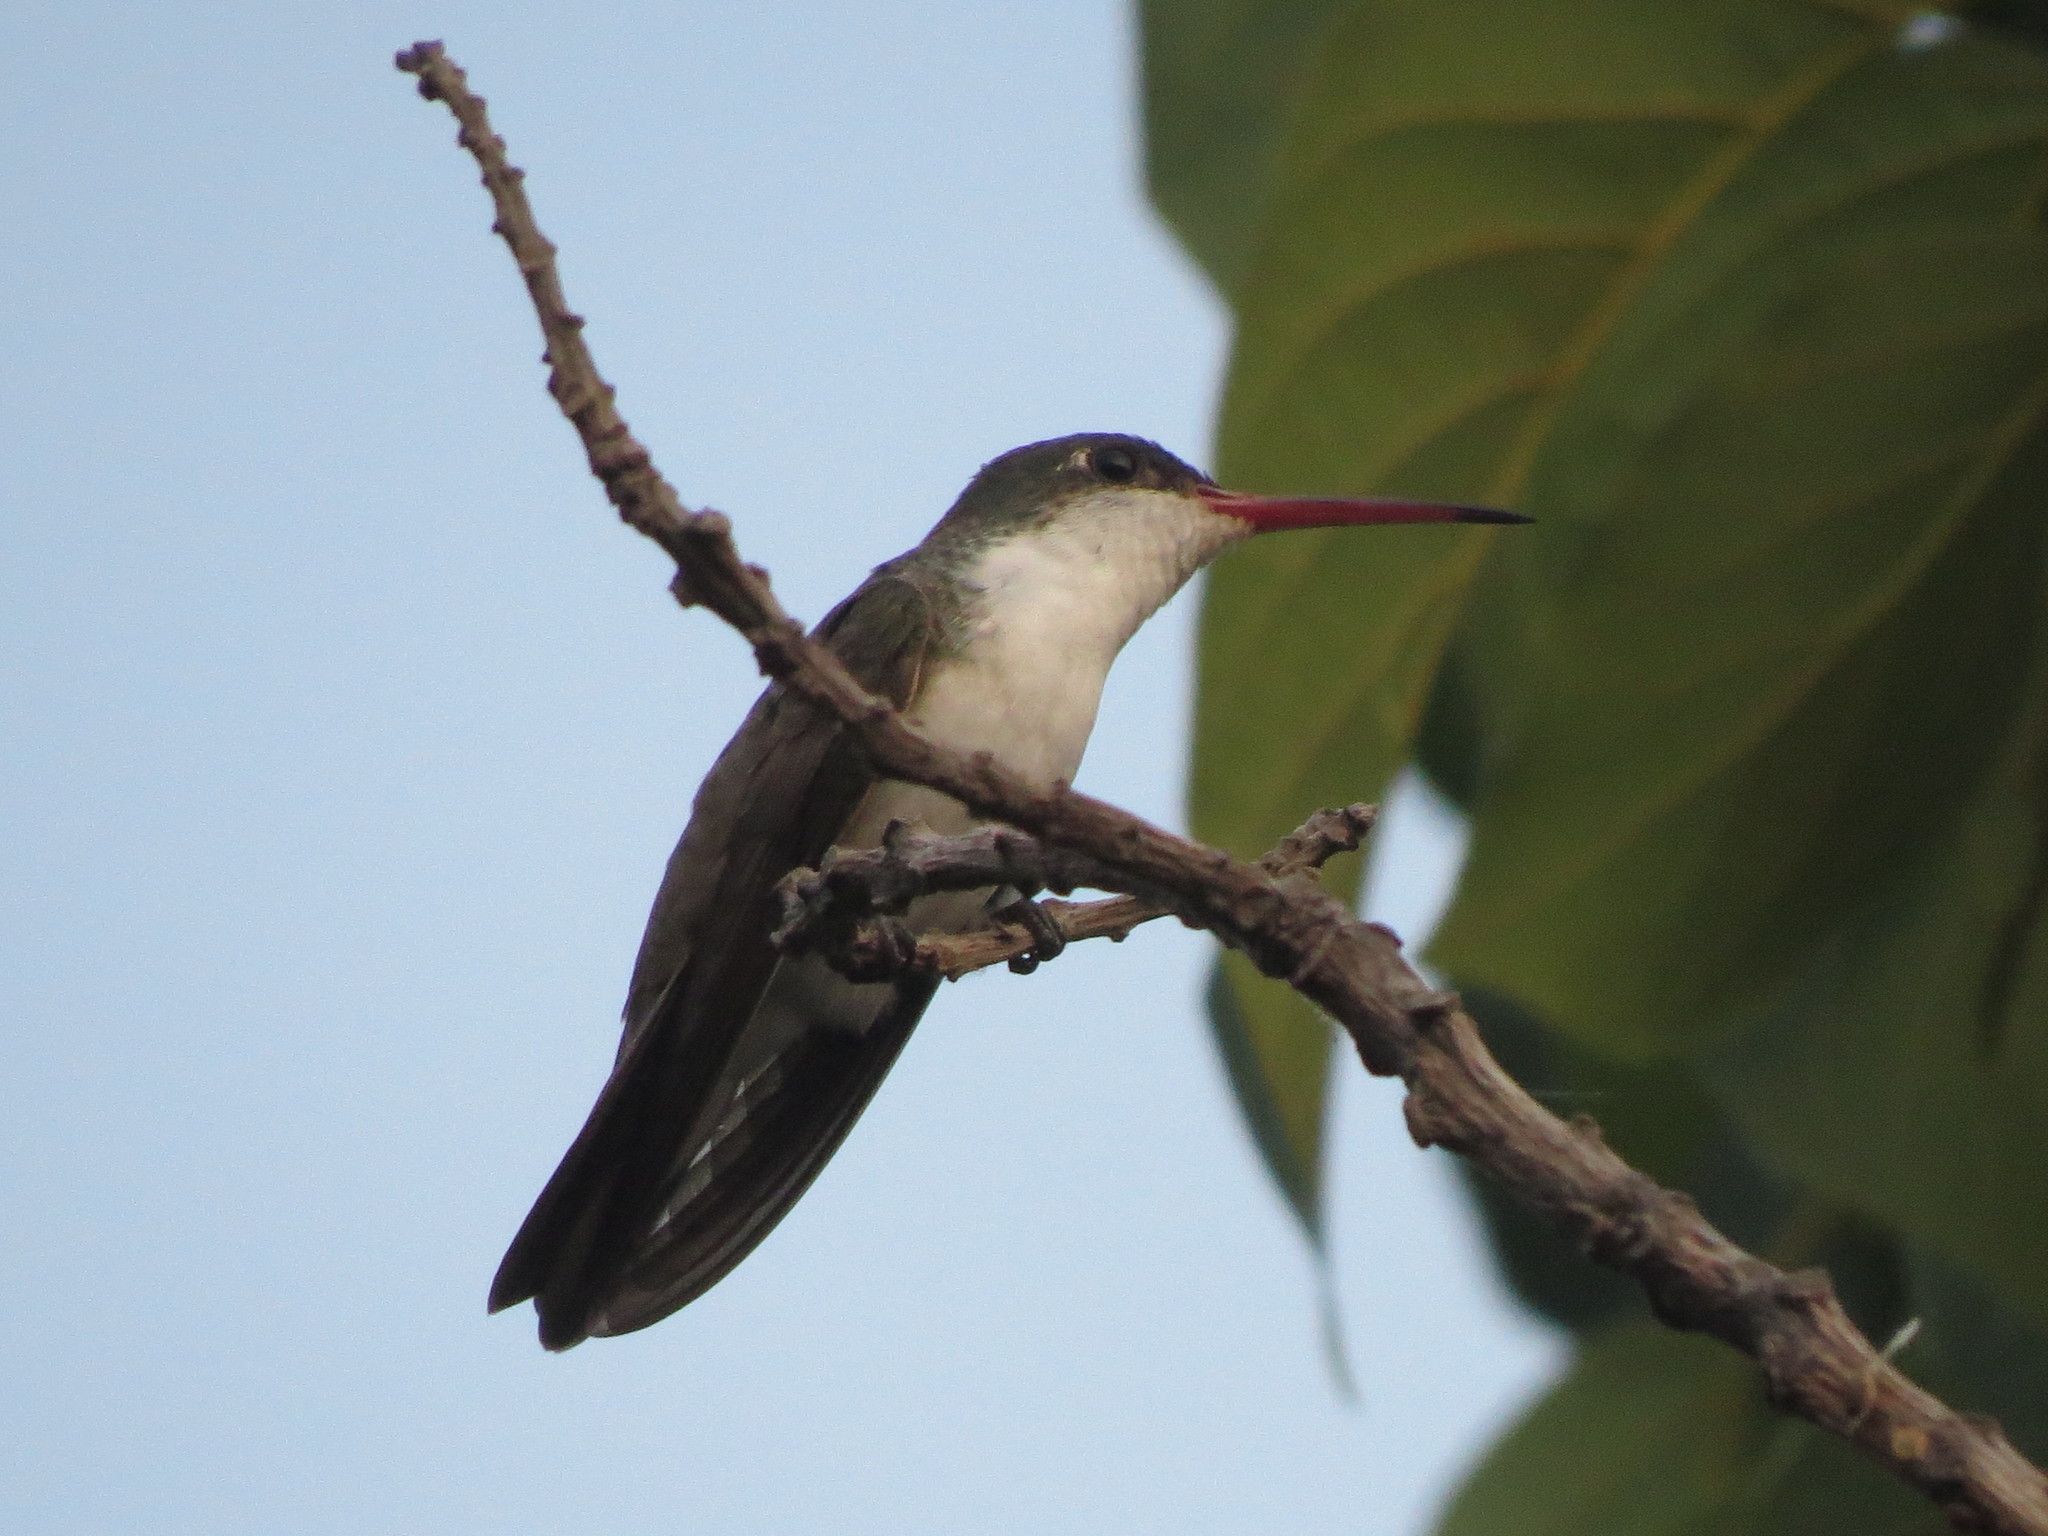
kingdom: Animalia
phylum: Chordata
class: Aves
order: Apodiformes
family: Trochilidae
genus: Leucolia
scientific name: Leucolia viridifrons
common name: Green-fronted hummingbird
